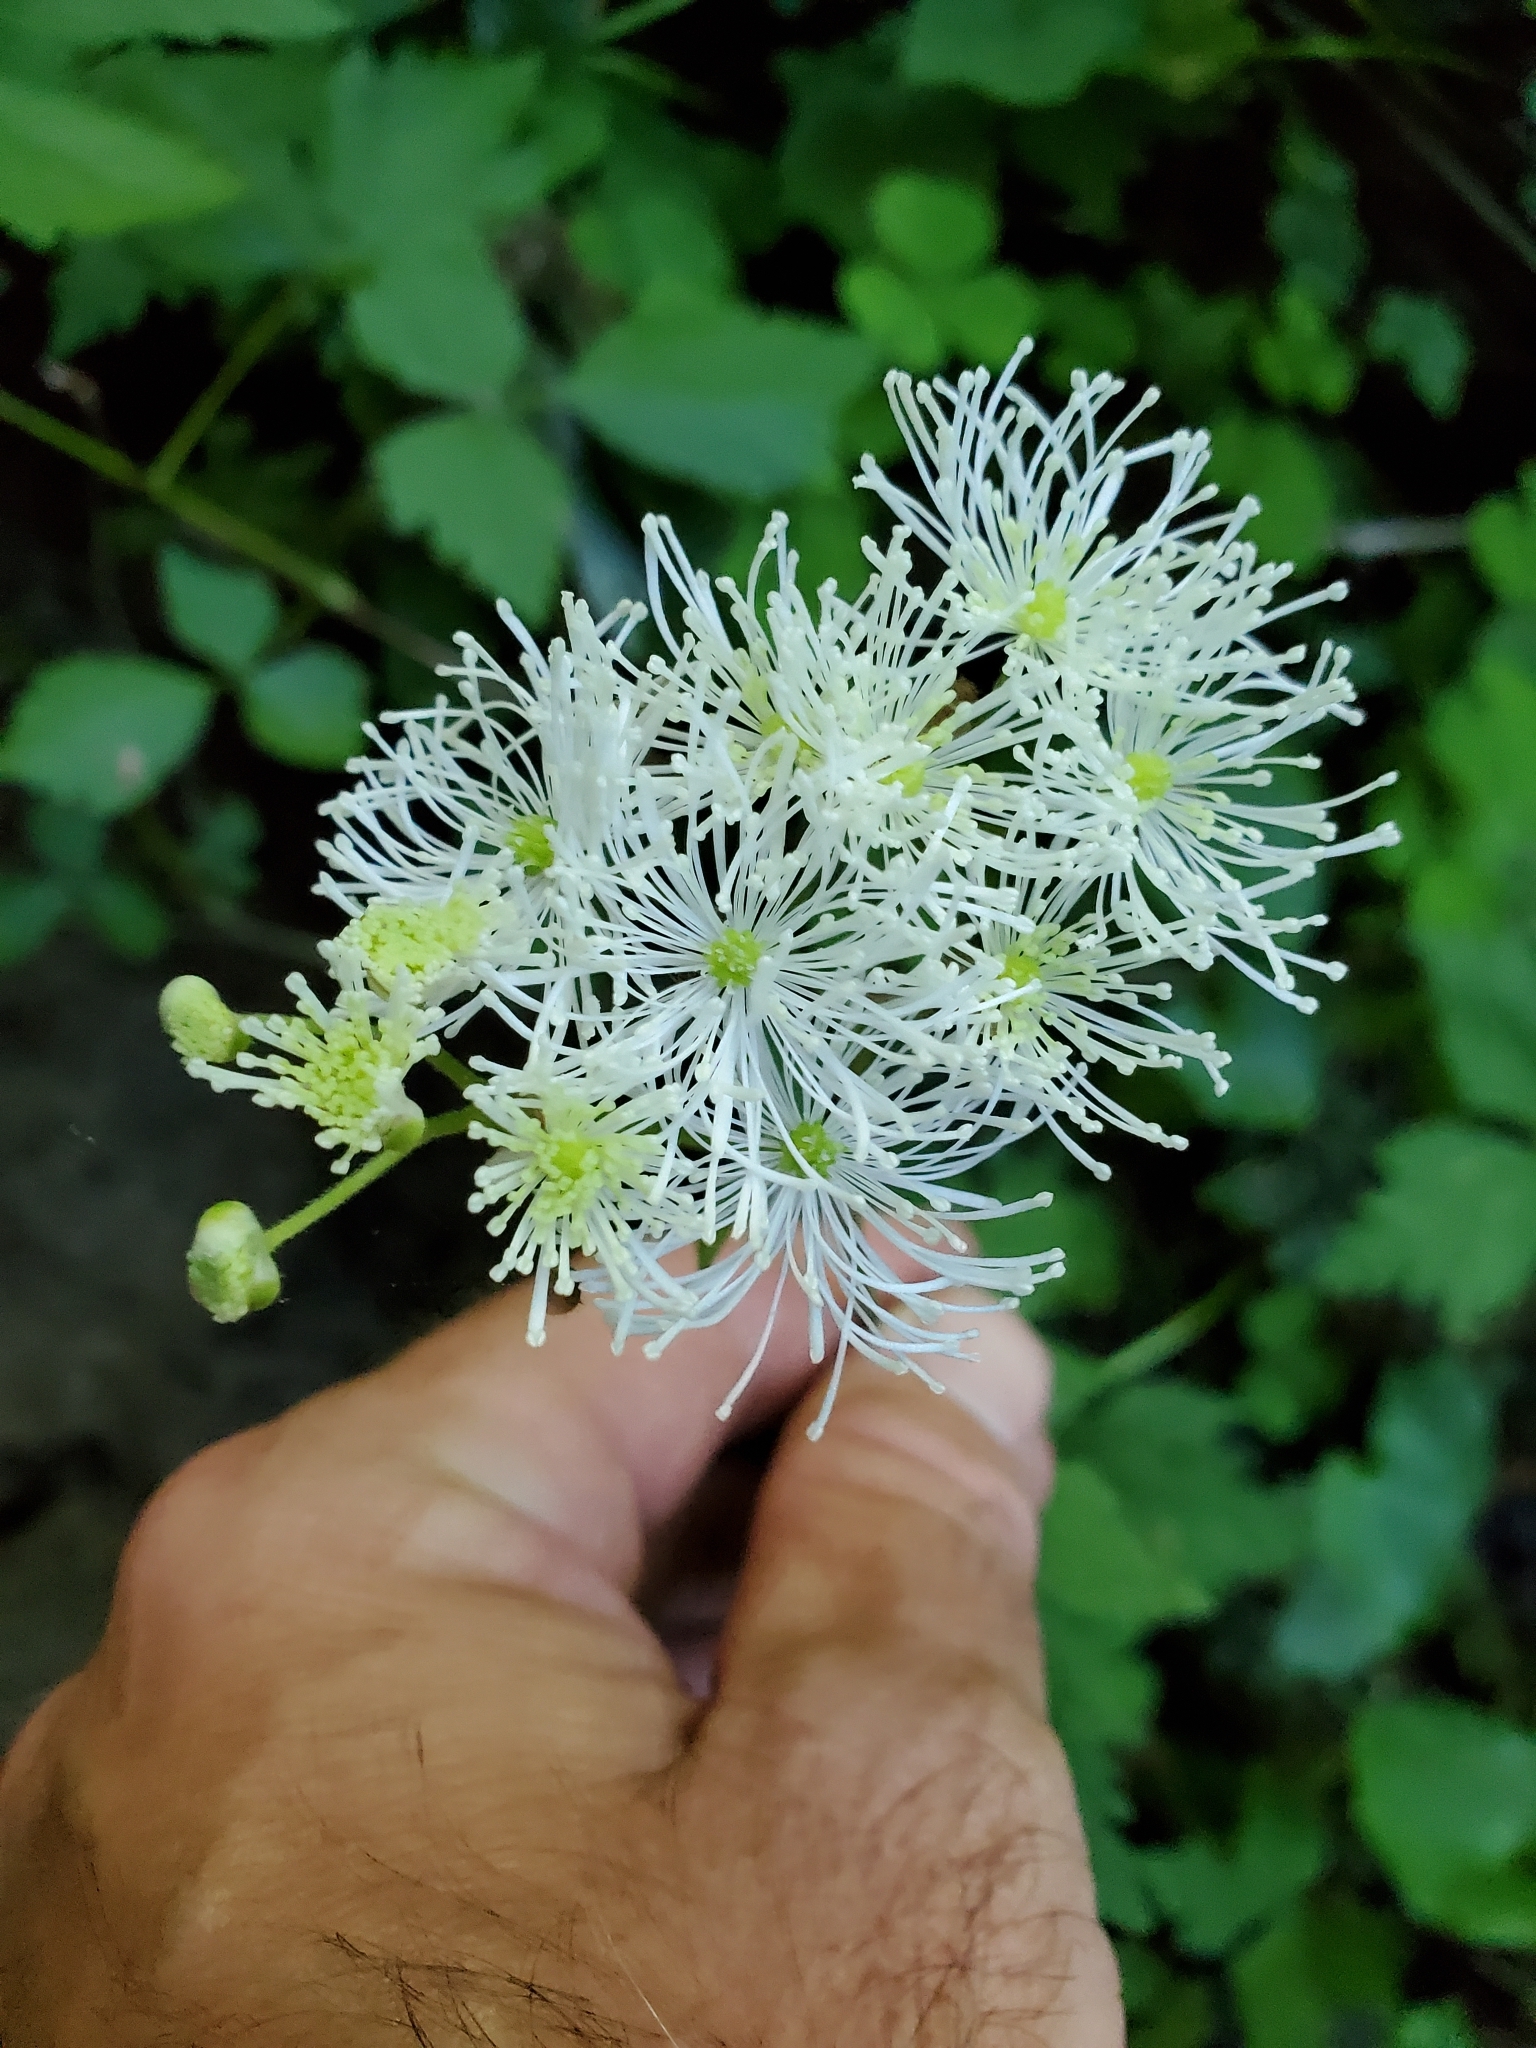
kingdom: Plantae
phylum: Tracheophyta
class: Magnoliopsida
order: Ranunculales
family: Ranunculaceae
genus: Trautvetteria
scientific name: Trautvetteria carolinensis
